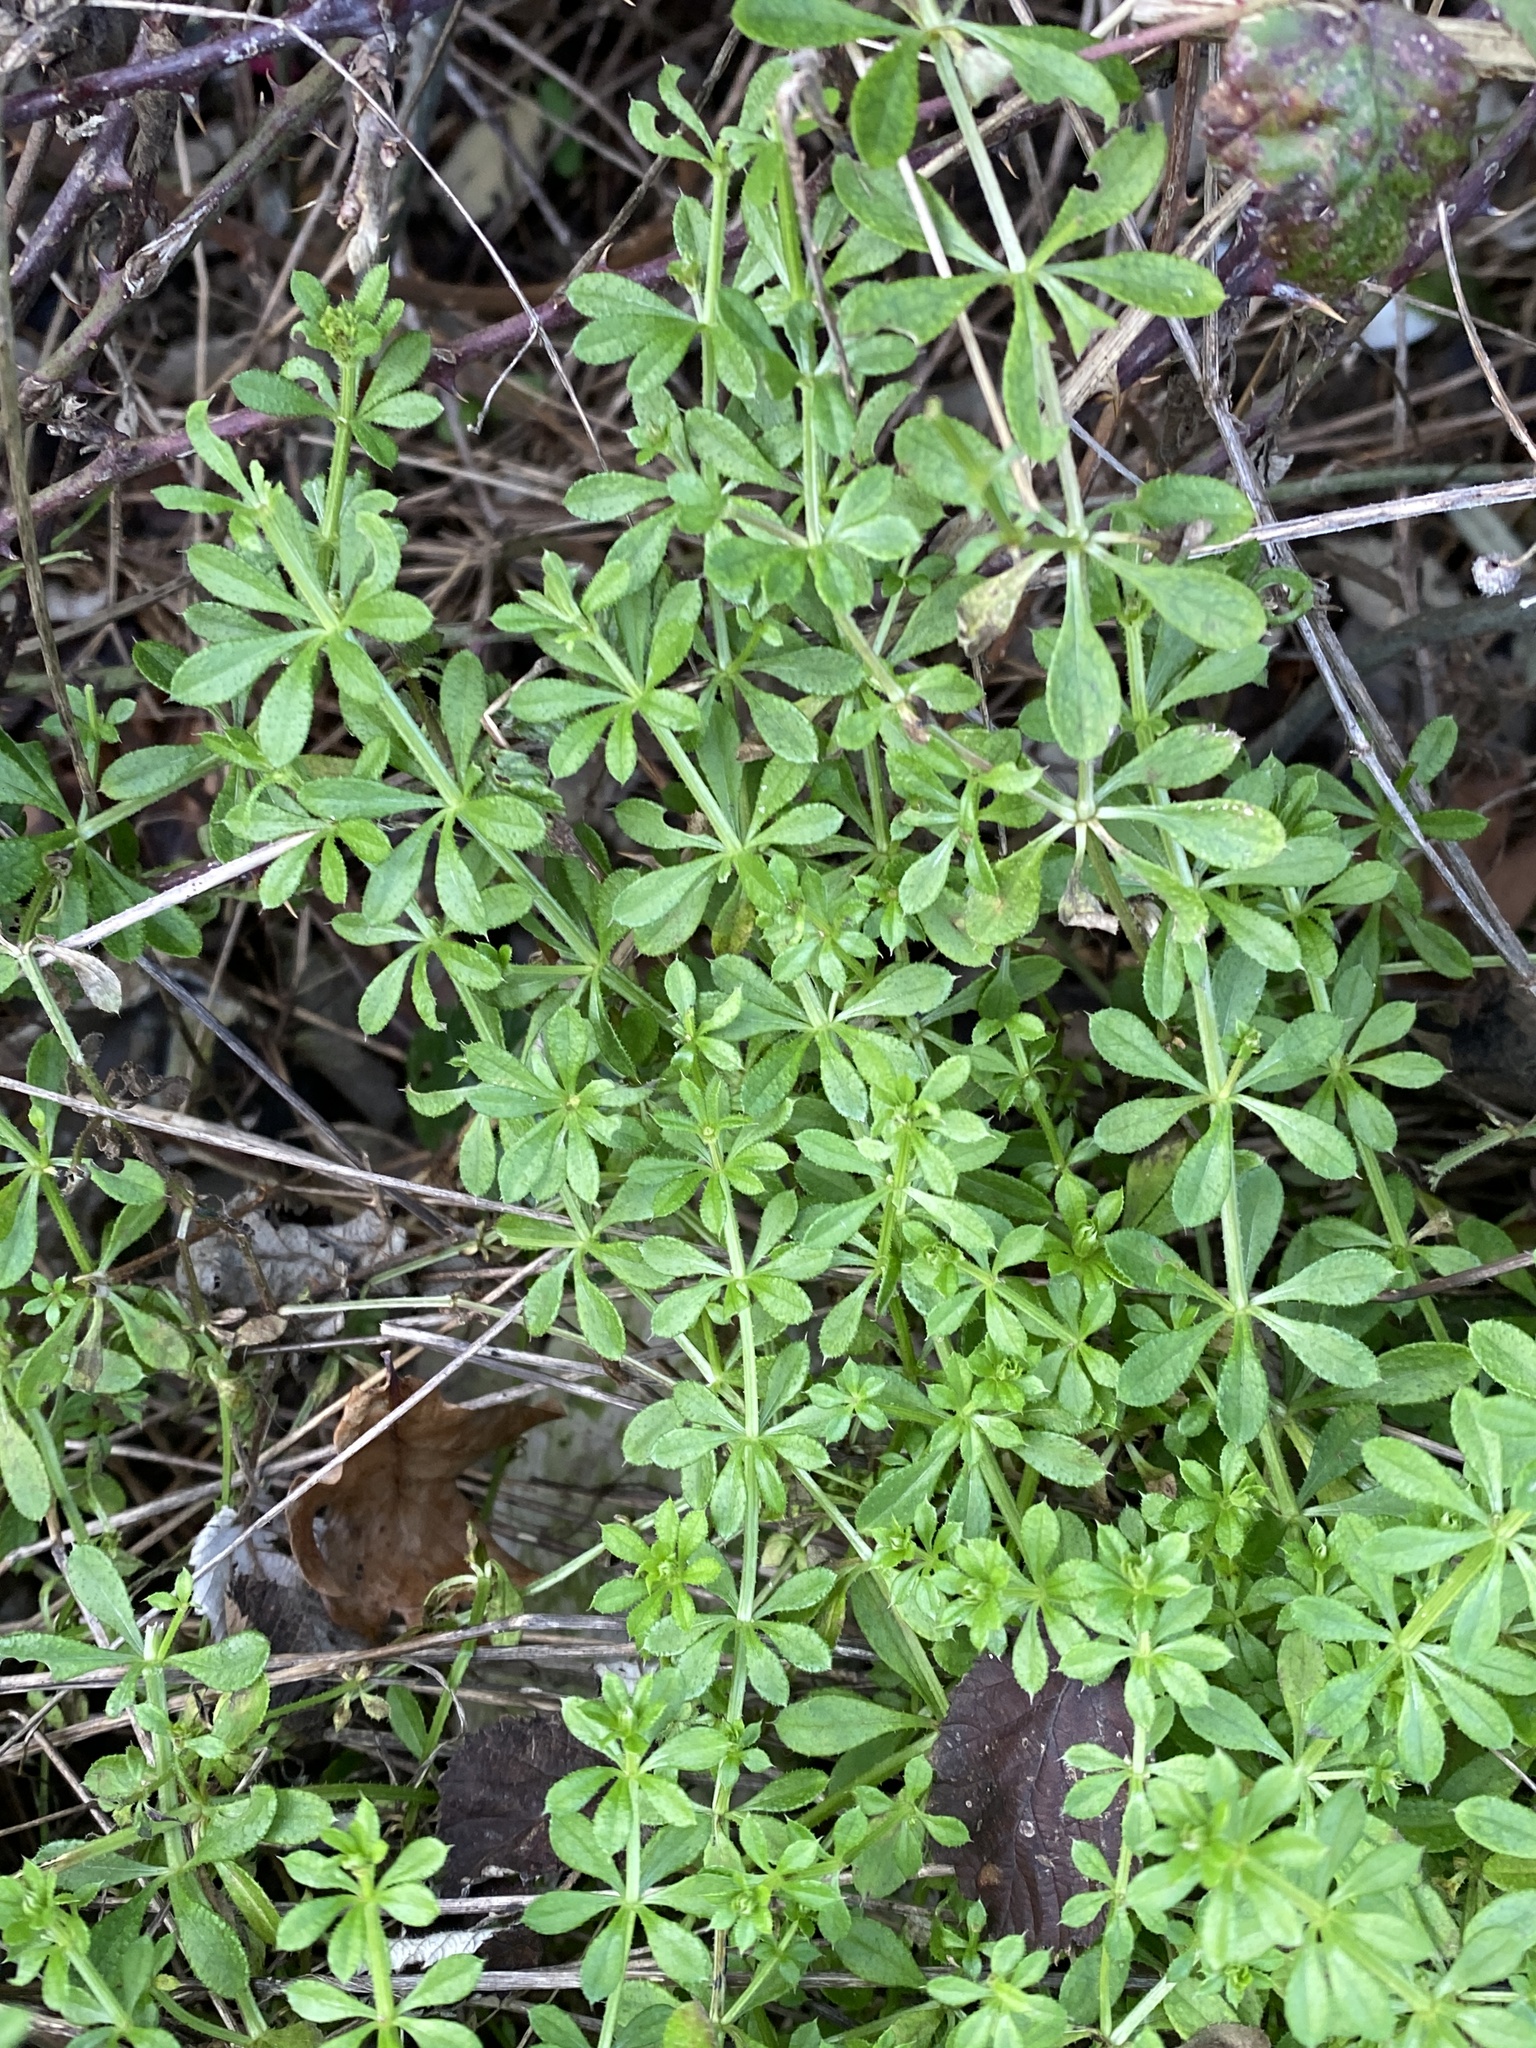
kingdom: Plantae
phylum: Tracheophyta
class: Magnoliopsida
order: Gentianales
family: Rubiaceae
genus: Galium
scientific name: Galium aparine
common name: Cleavers
